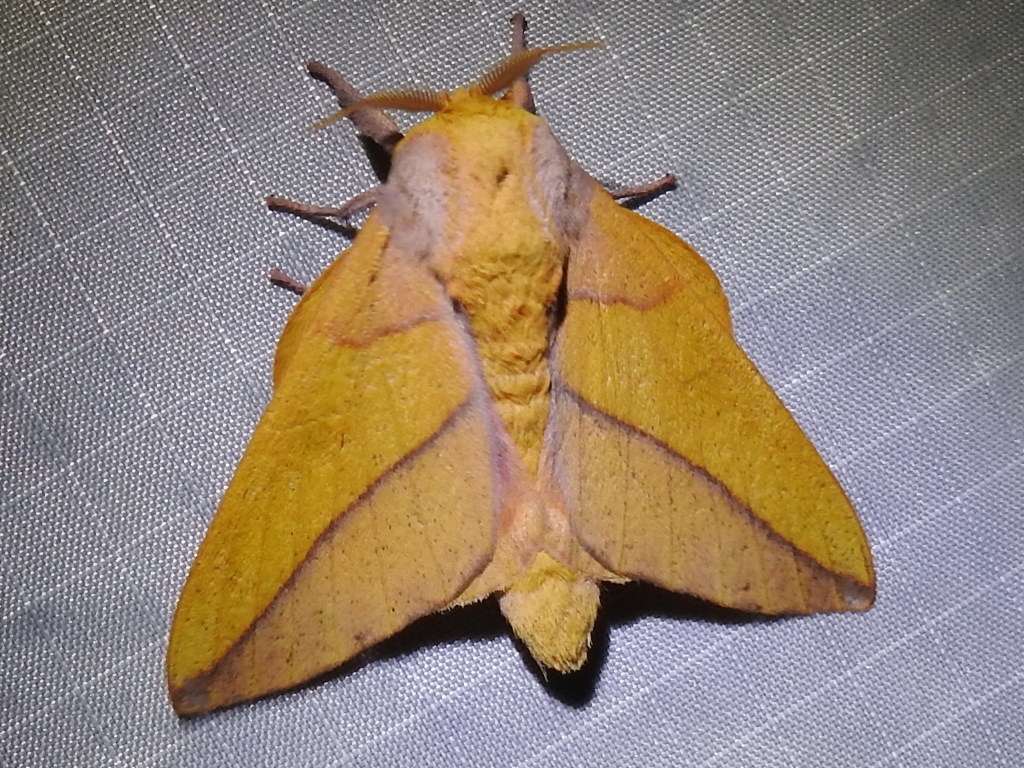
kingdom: Animalia
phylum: Arthropoda
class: Insecta
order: Lepidoptera
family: Saturniidae
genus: Syssphinx
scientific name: Syssphinx bisecta
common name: Bisected honey locust moth
